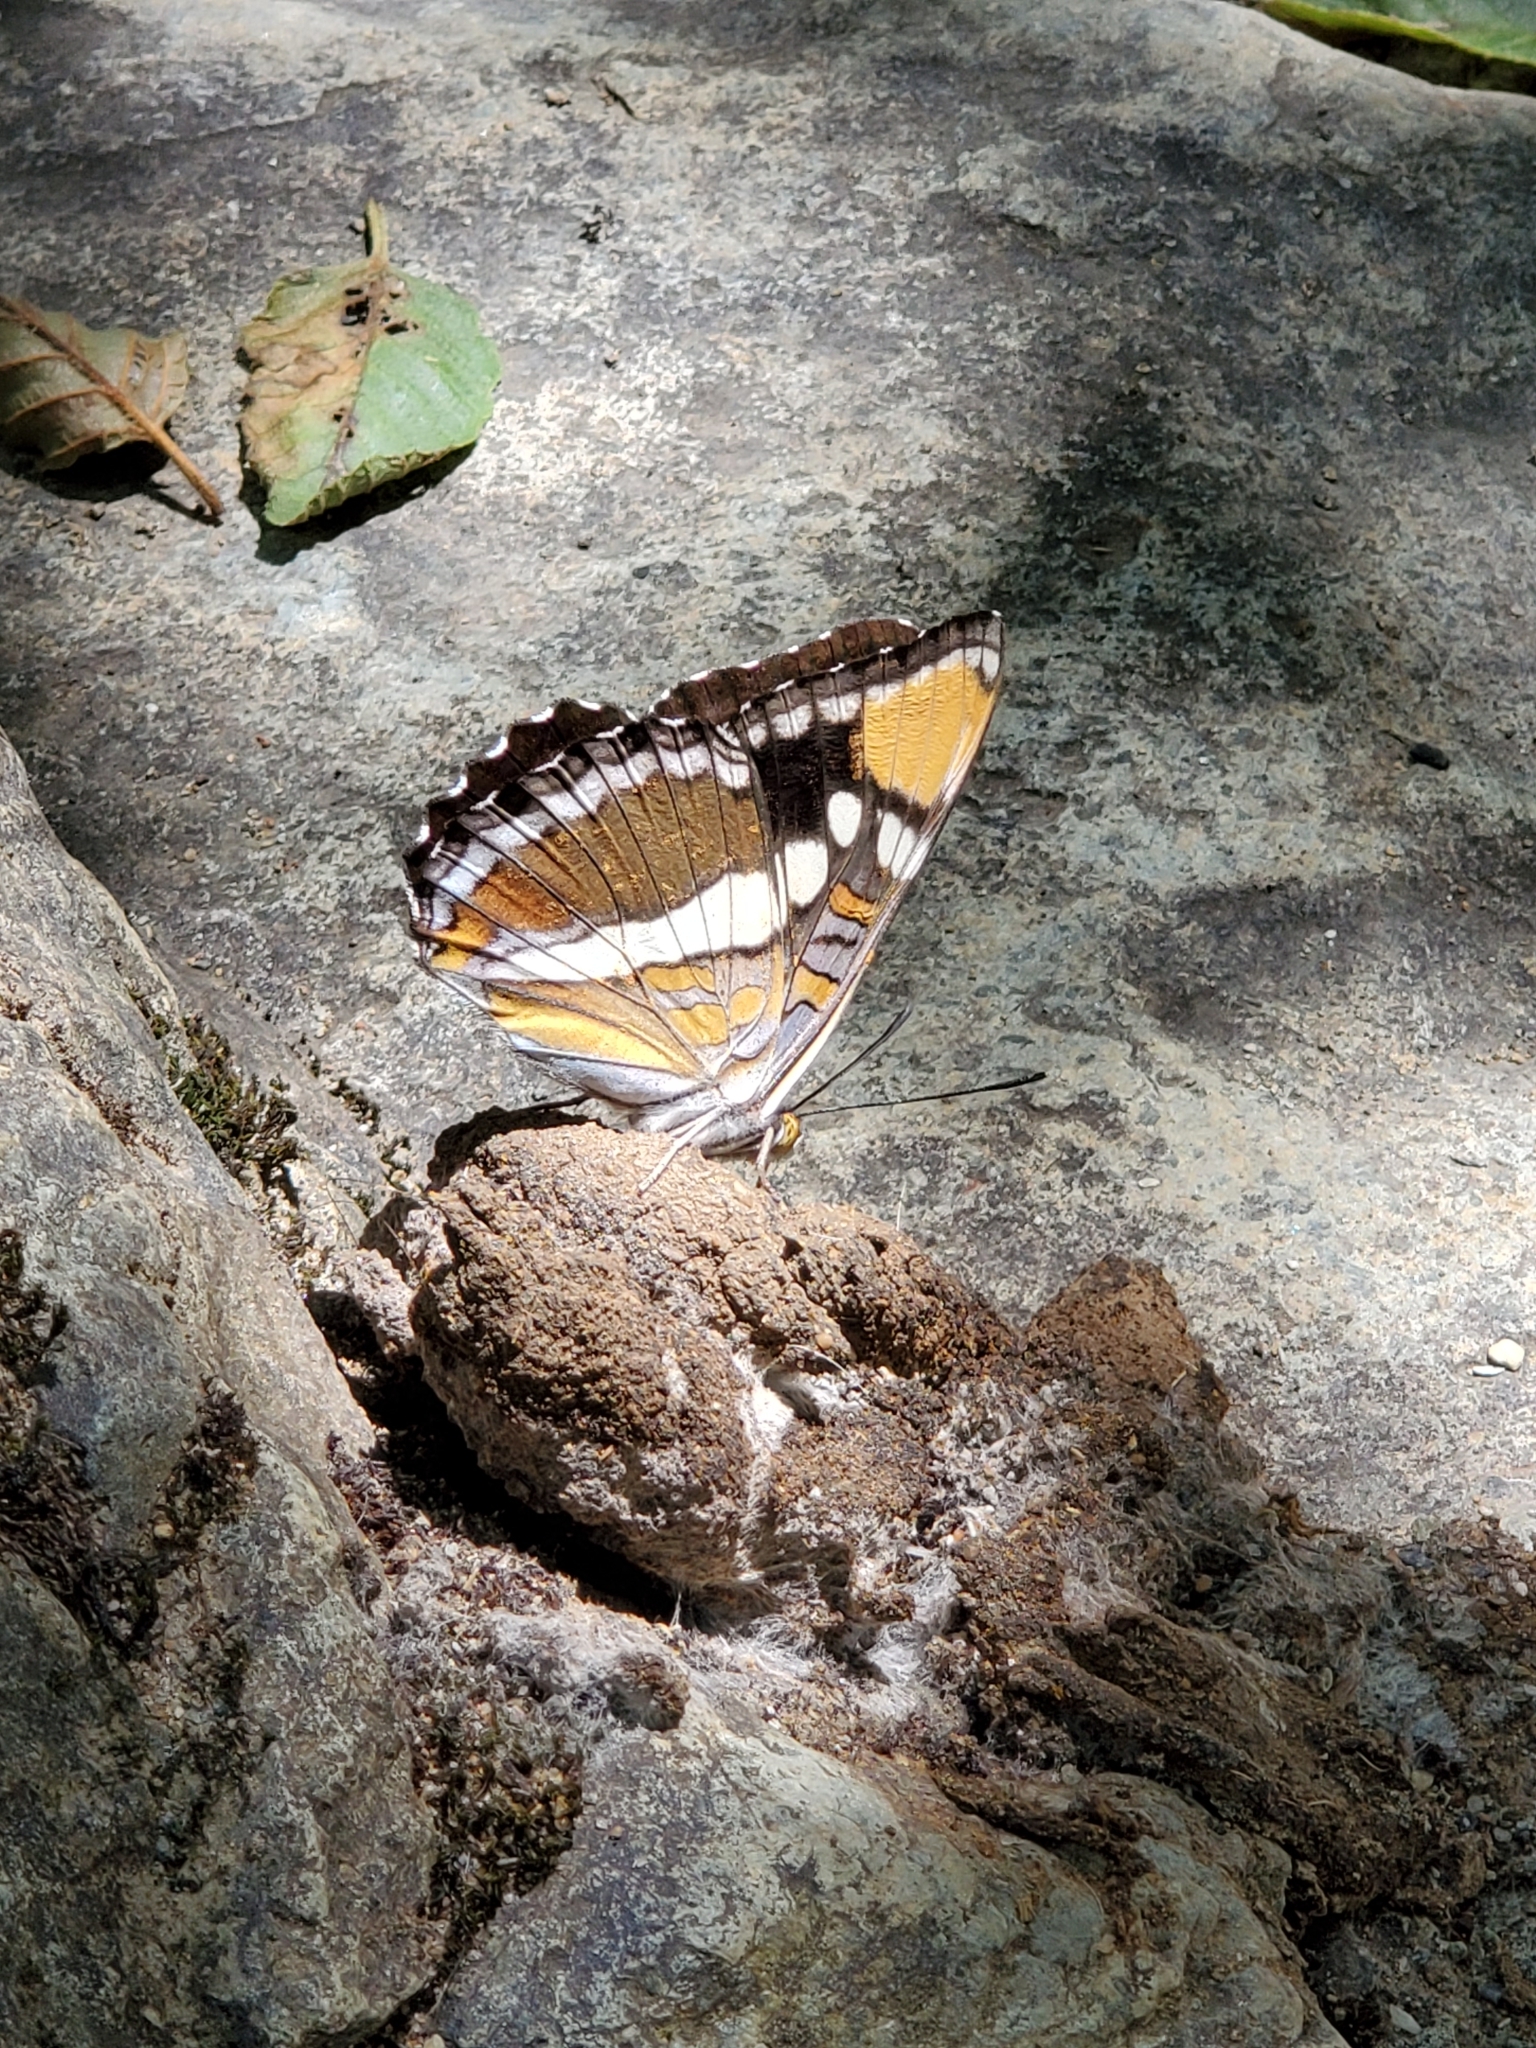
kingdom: Animalia
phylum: Arthropoda
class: Insecta
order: Lepidoptera
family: Nymphalidae
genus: Limenitis
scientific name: Limenitis bredowii
